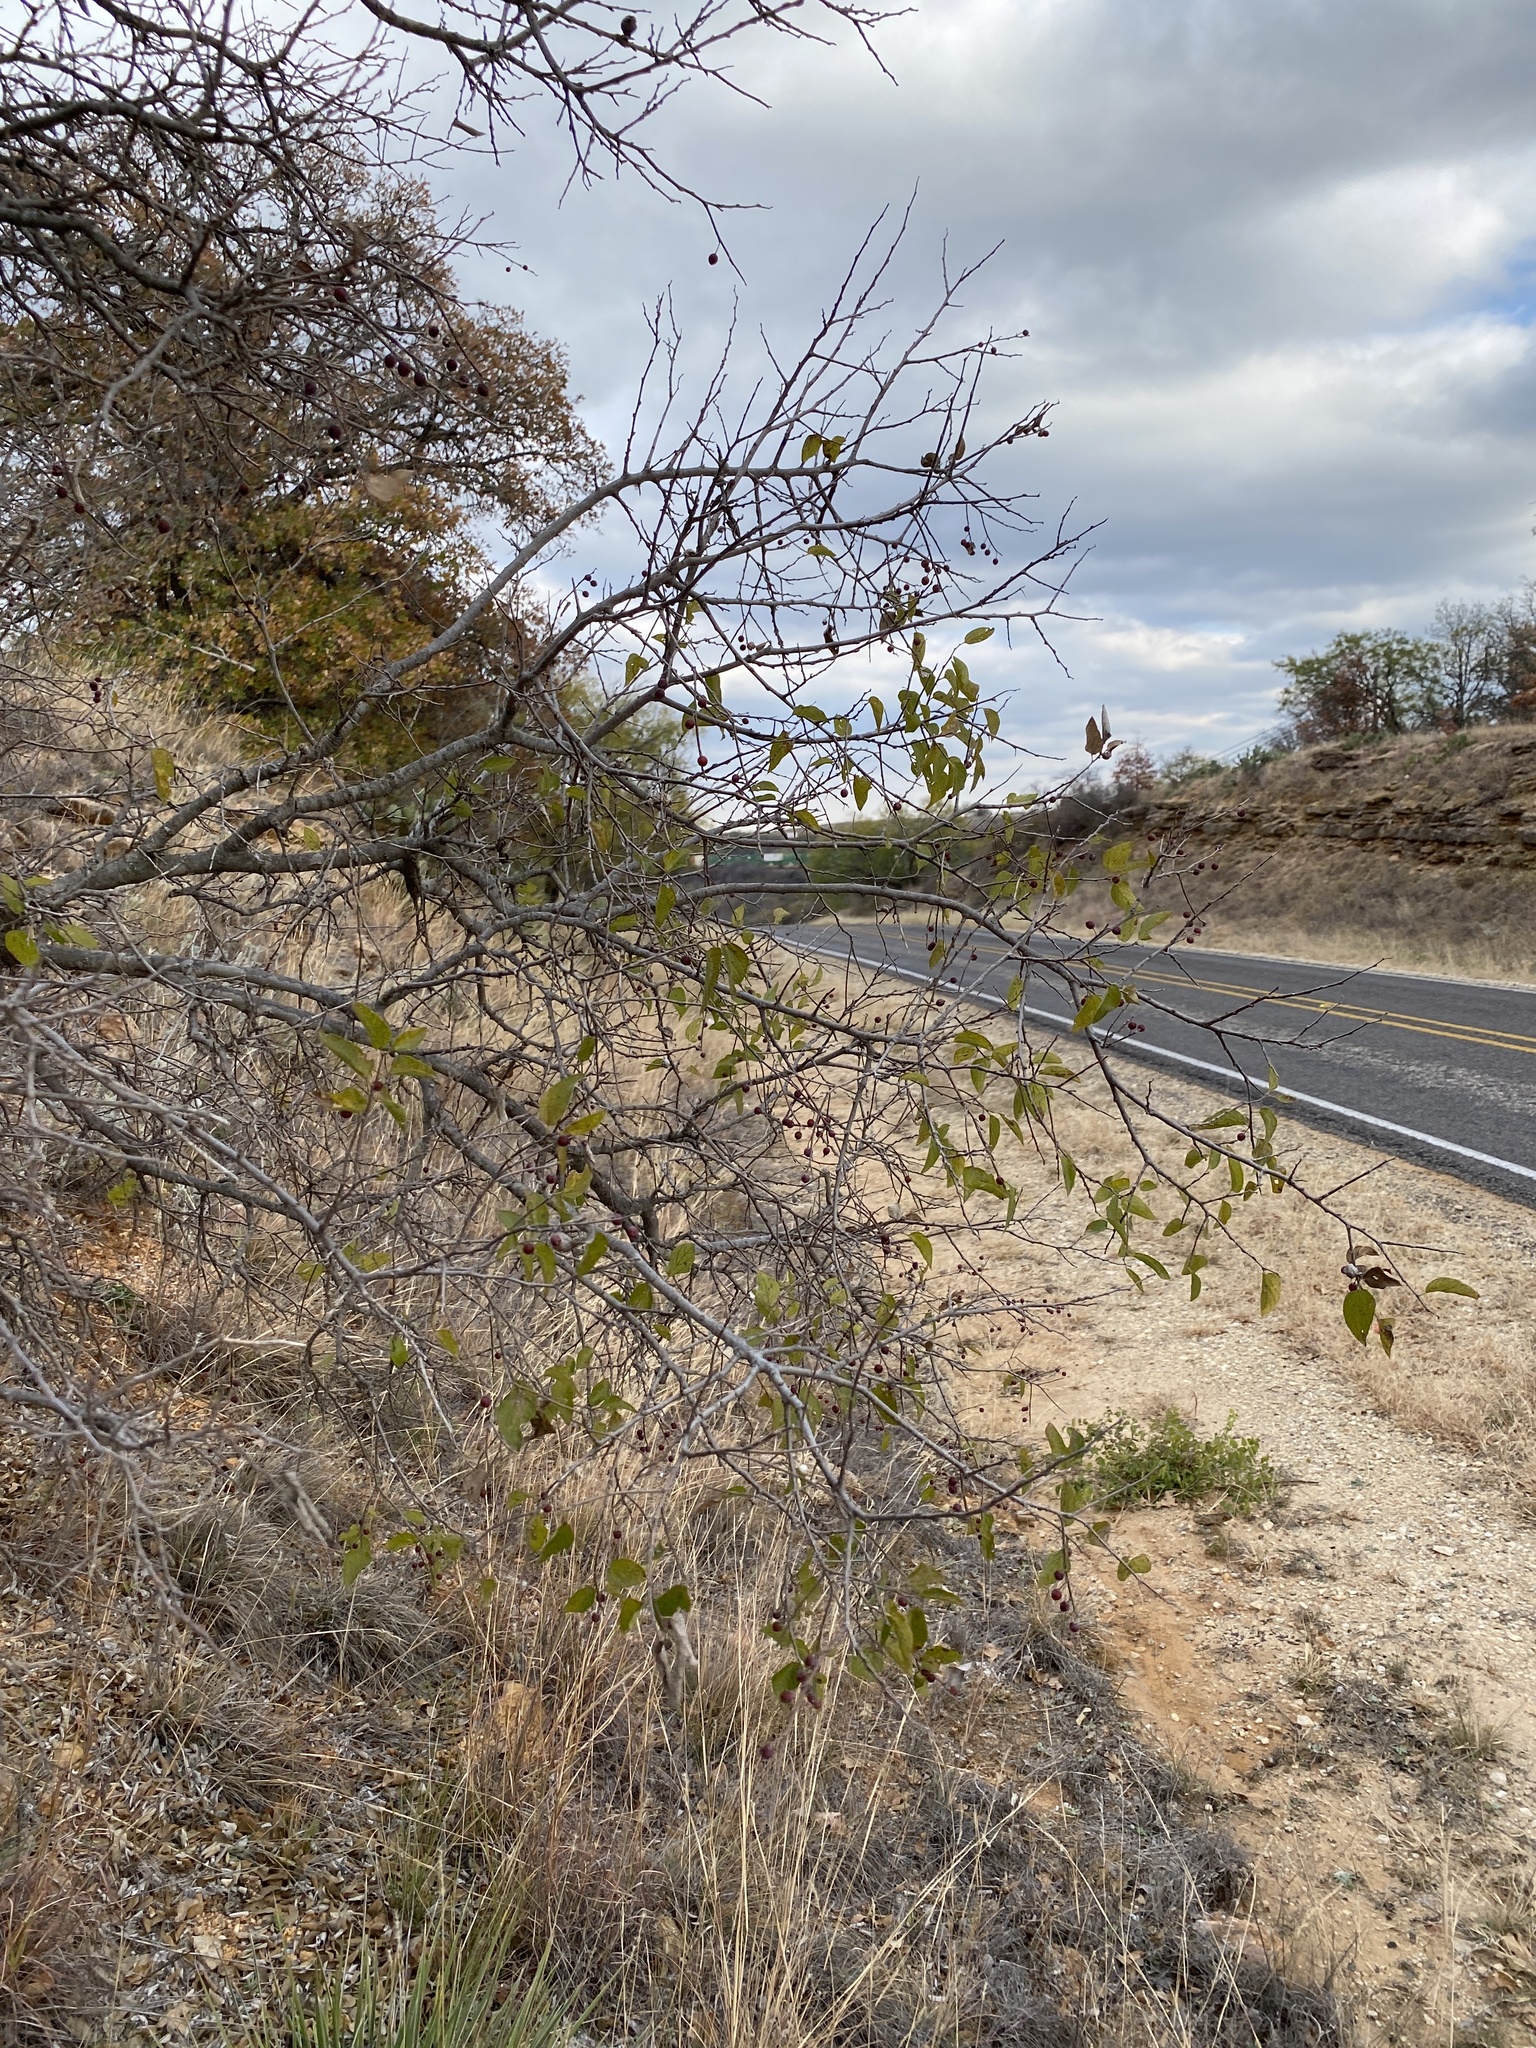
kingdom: Plantae
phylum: Tracheophyta
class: Magnoliopsida
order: Rosales
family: Cannabaceae
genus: Celtis
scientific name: Celtis laevigata
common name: Sugarberry
